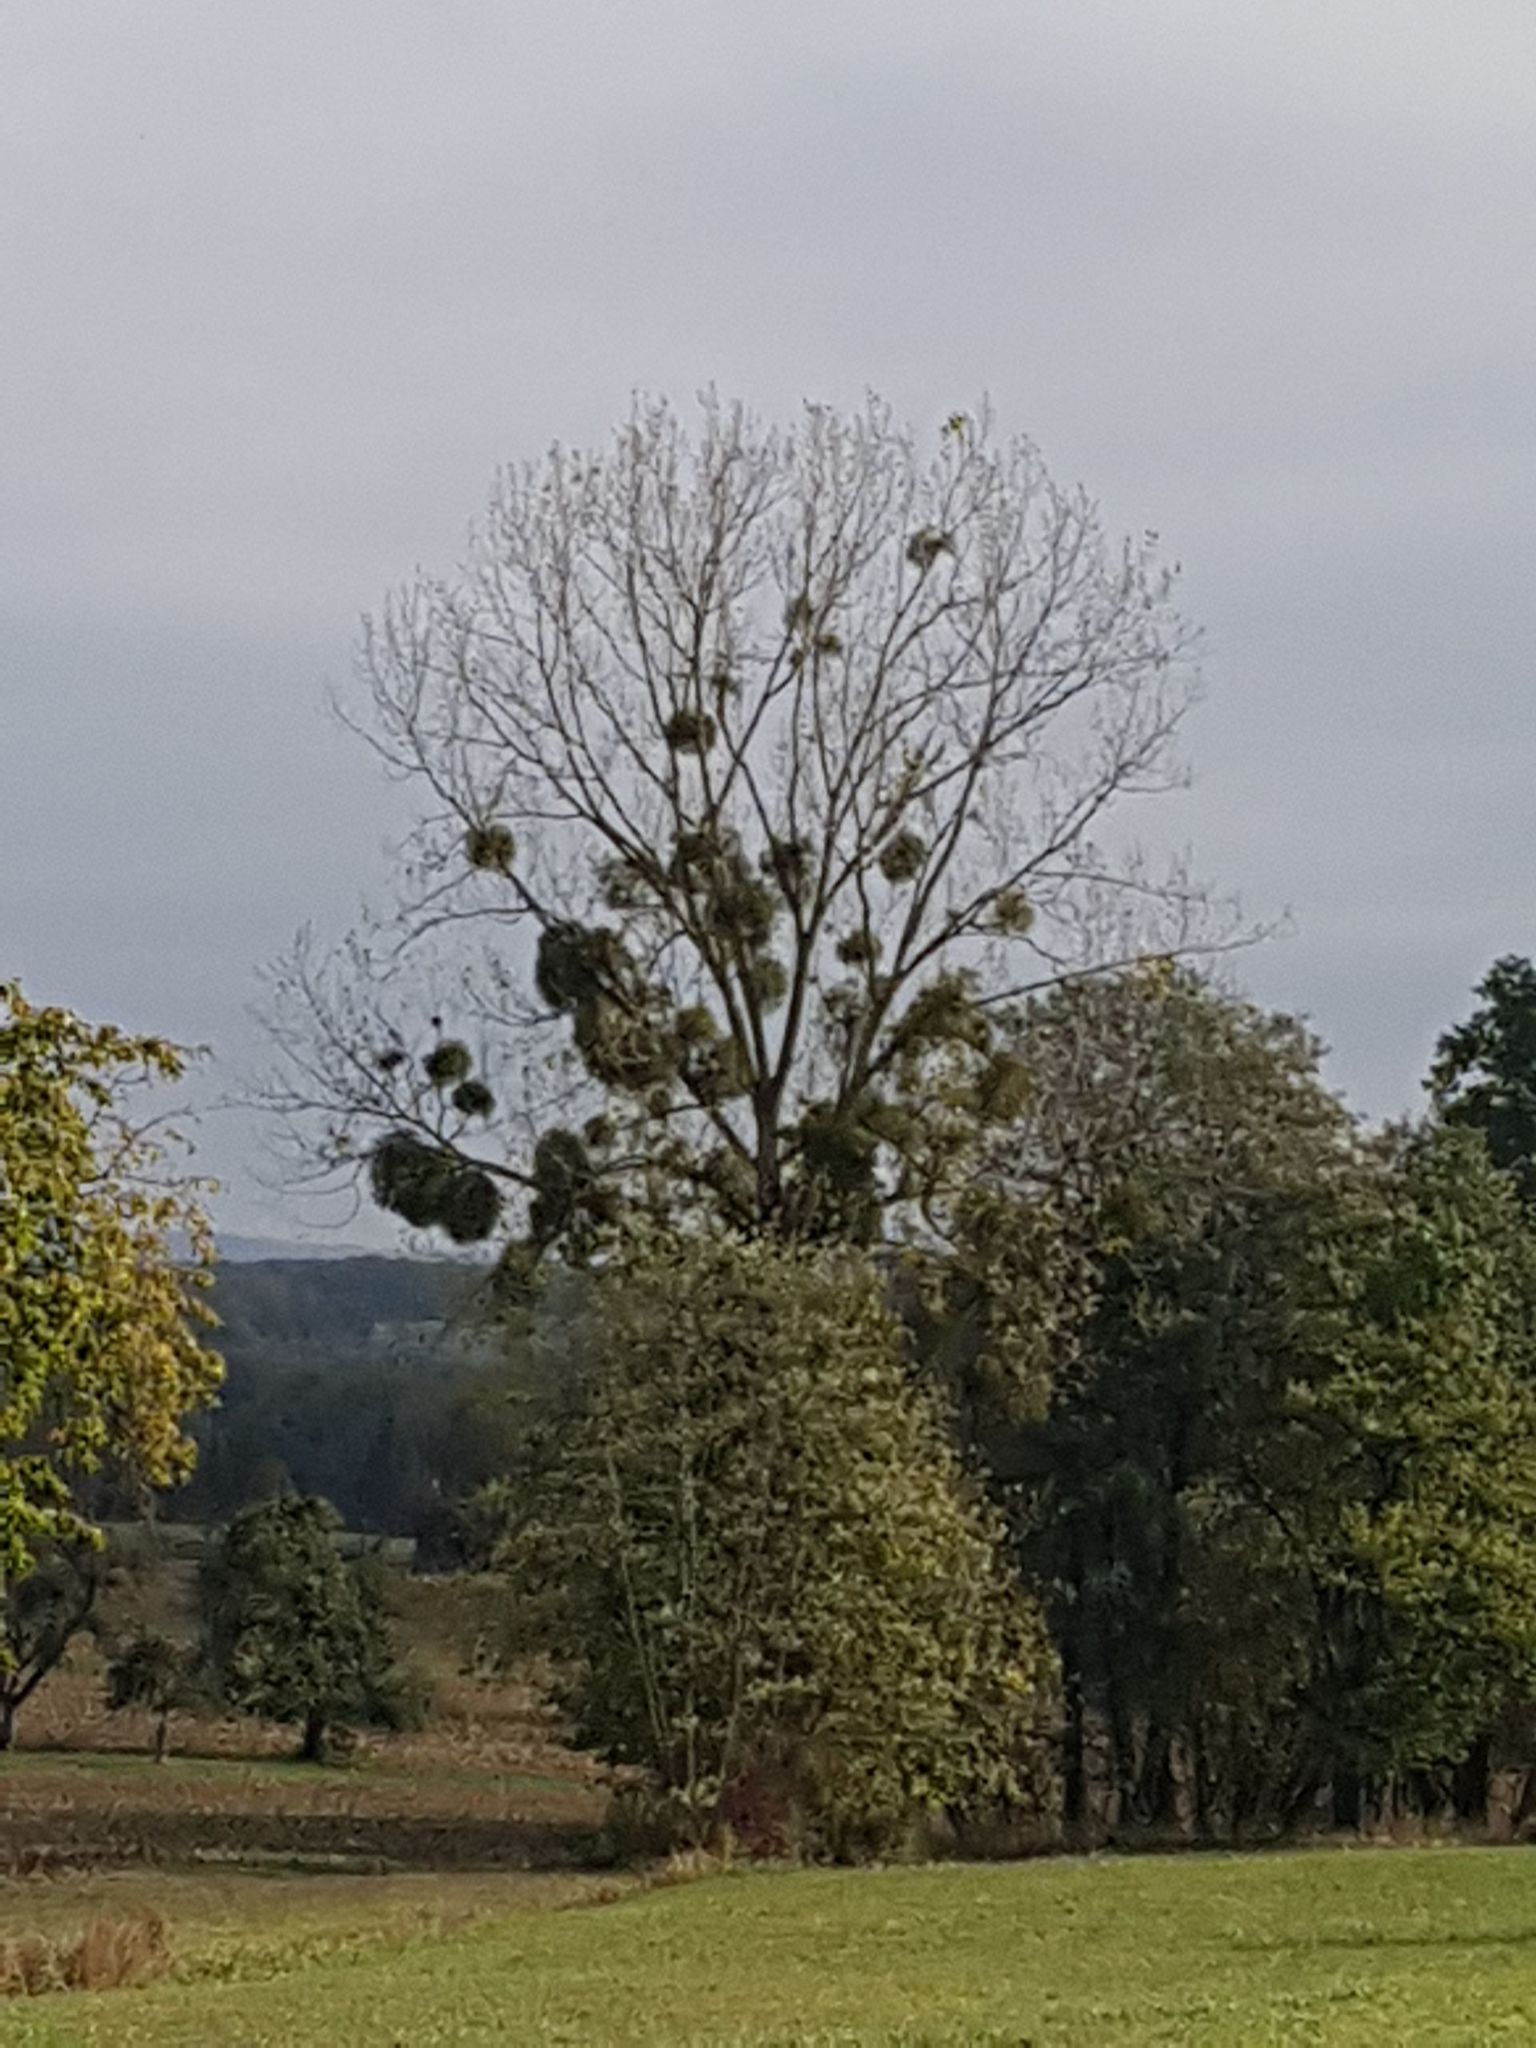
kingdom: Plantae
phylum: Tracheophyta
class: Magnoliopsida
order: Santalales
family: Viscaceae
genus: Viscum
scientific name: Viscum album
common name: Mistletoe
